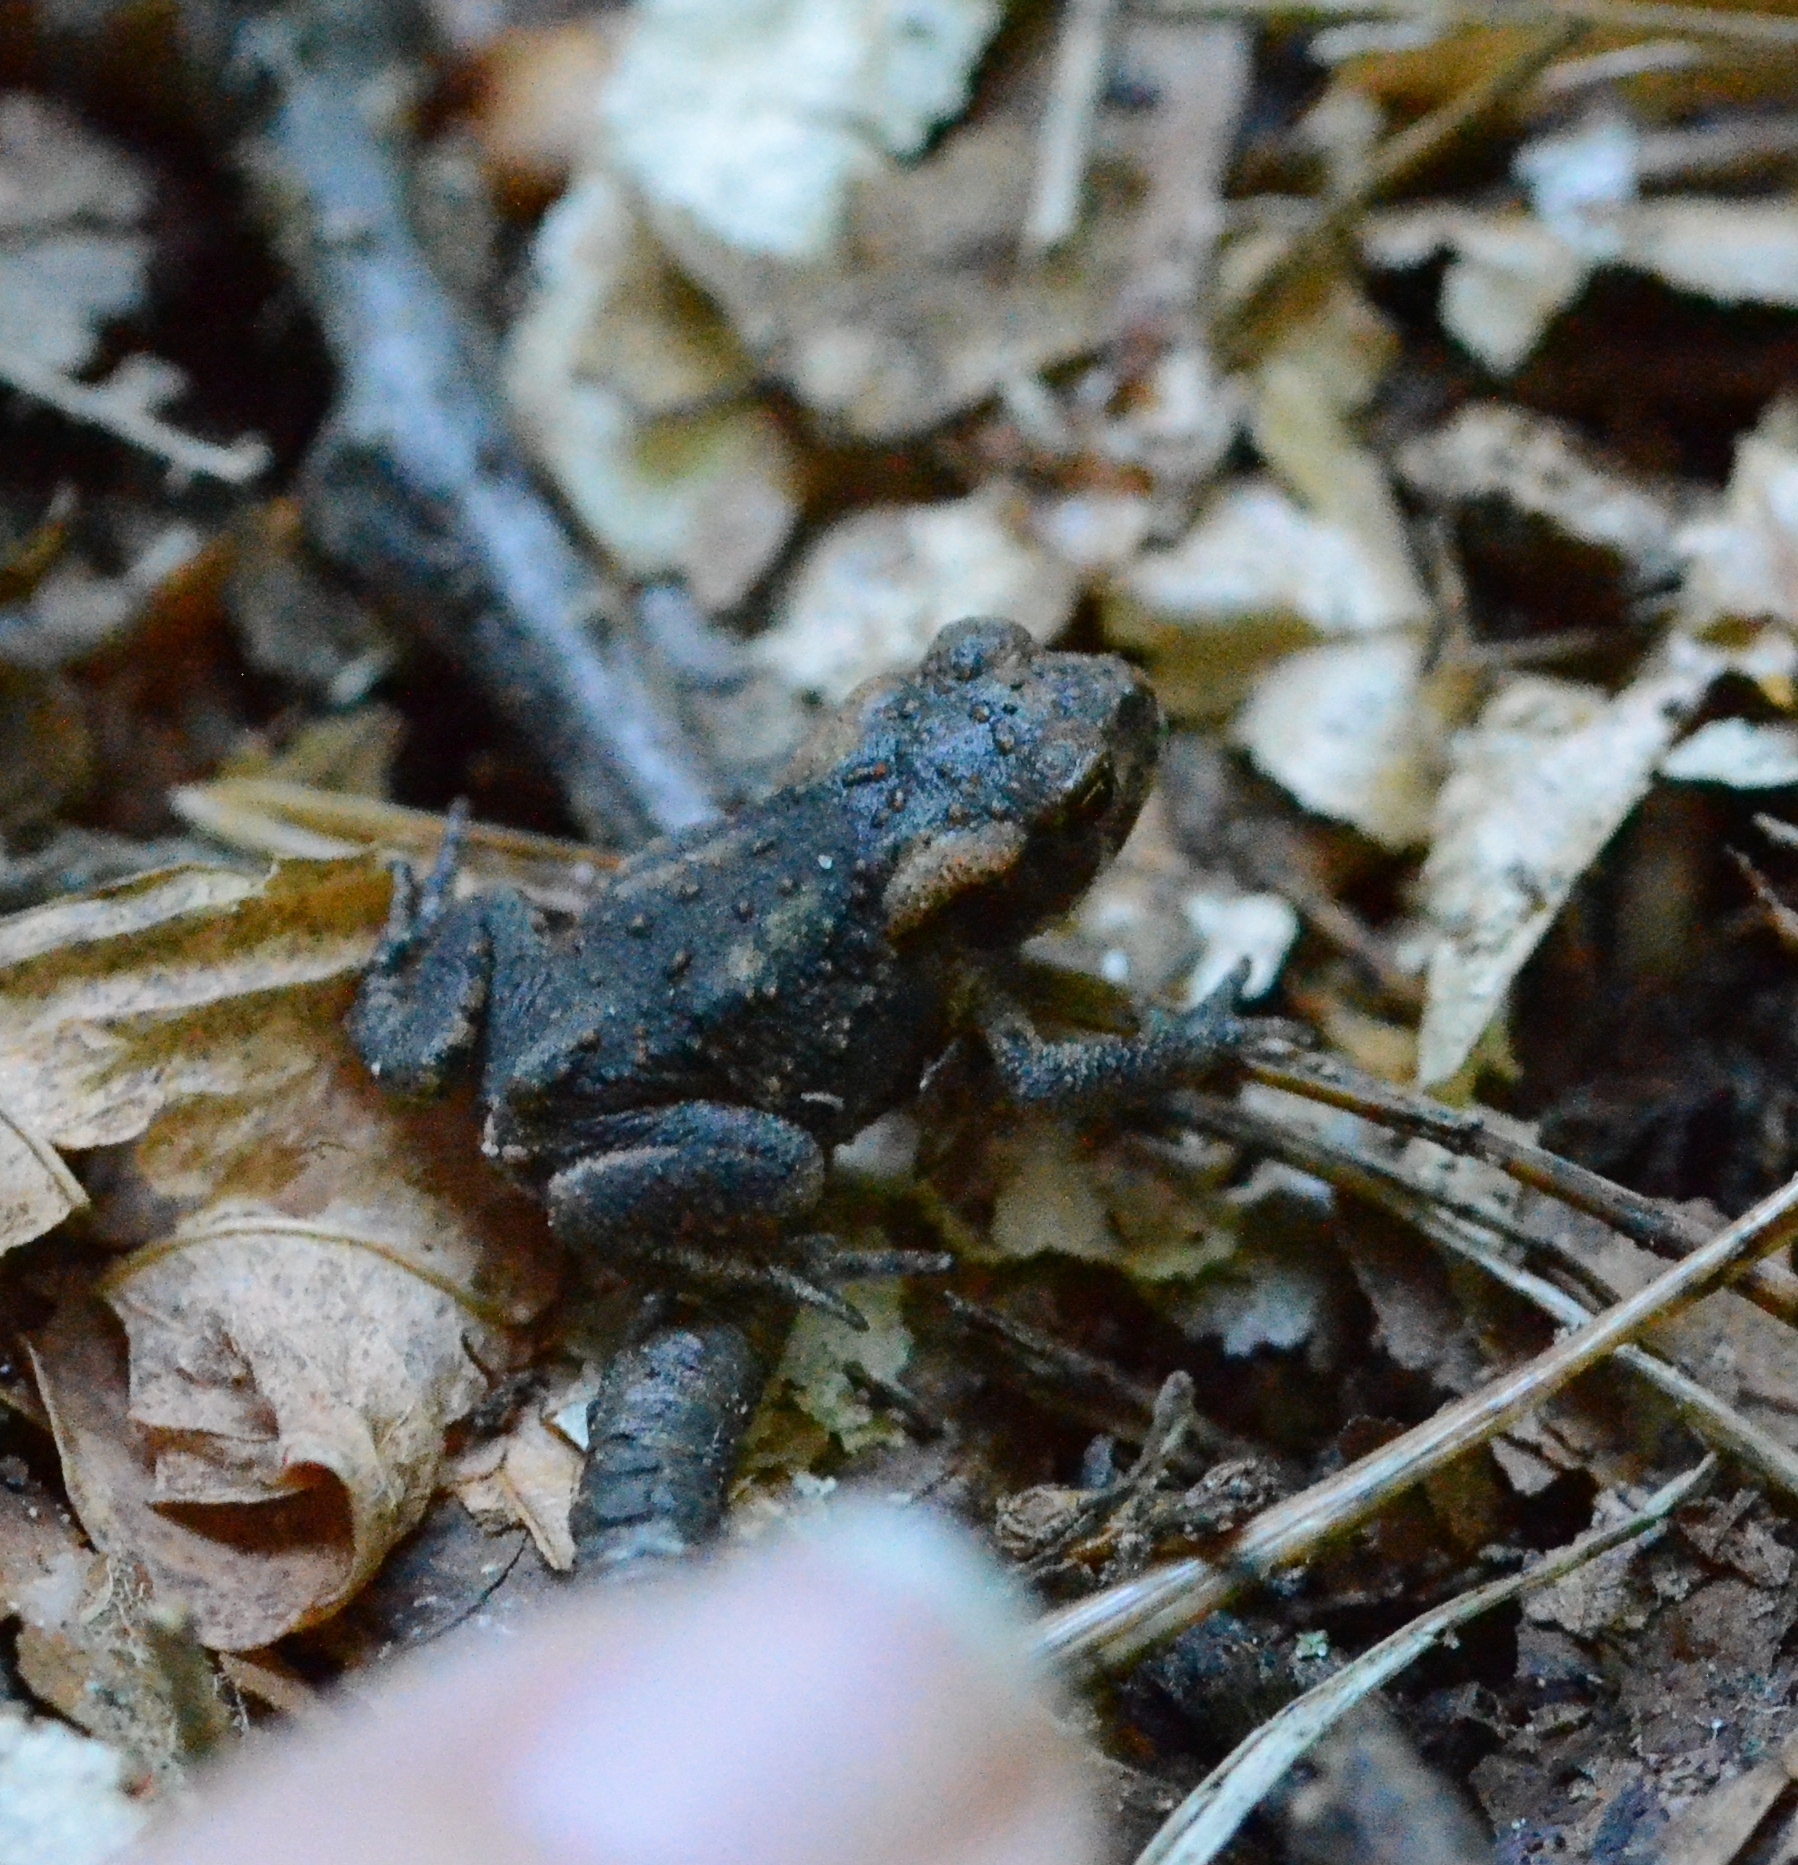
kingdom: Animalia
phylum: Chordata
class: Amphibia
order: Anura
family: Bufonidae
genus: Bufo
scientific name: Bufo bufo
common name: Common toad
